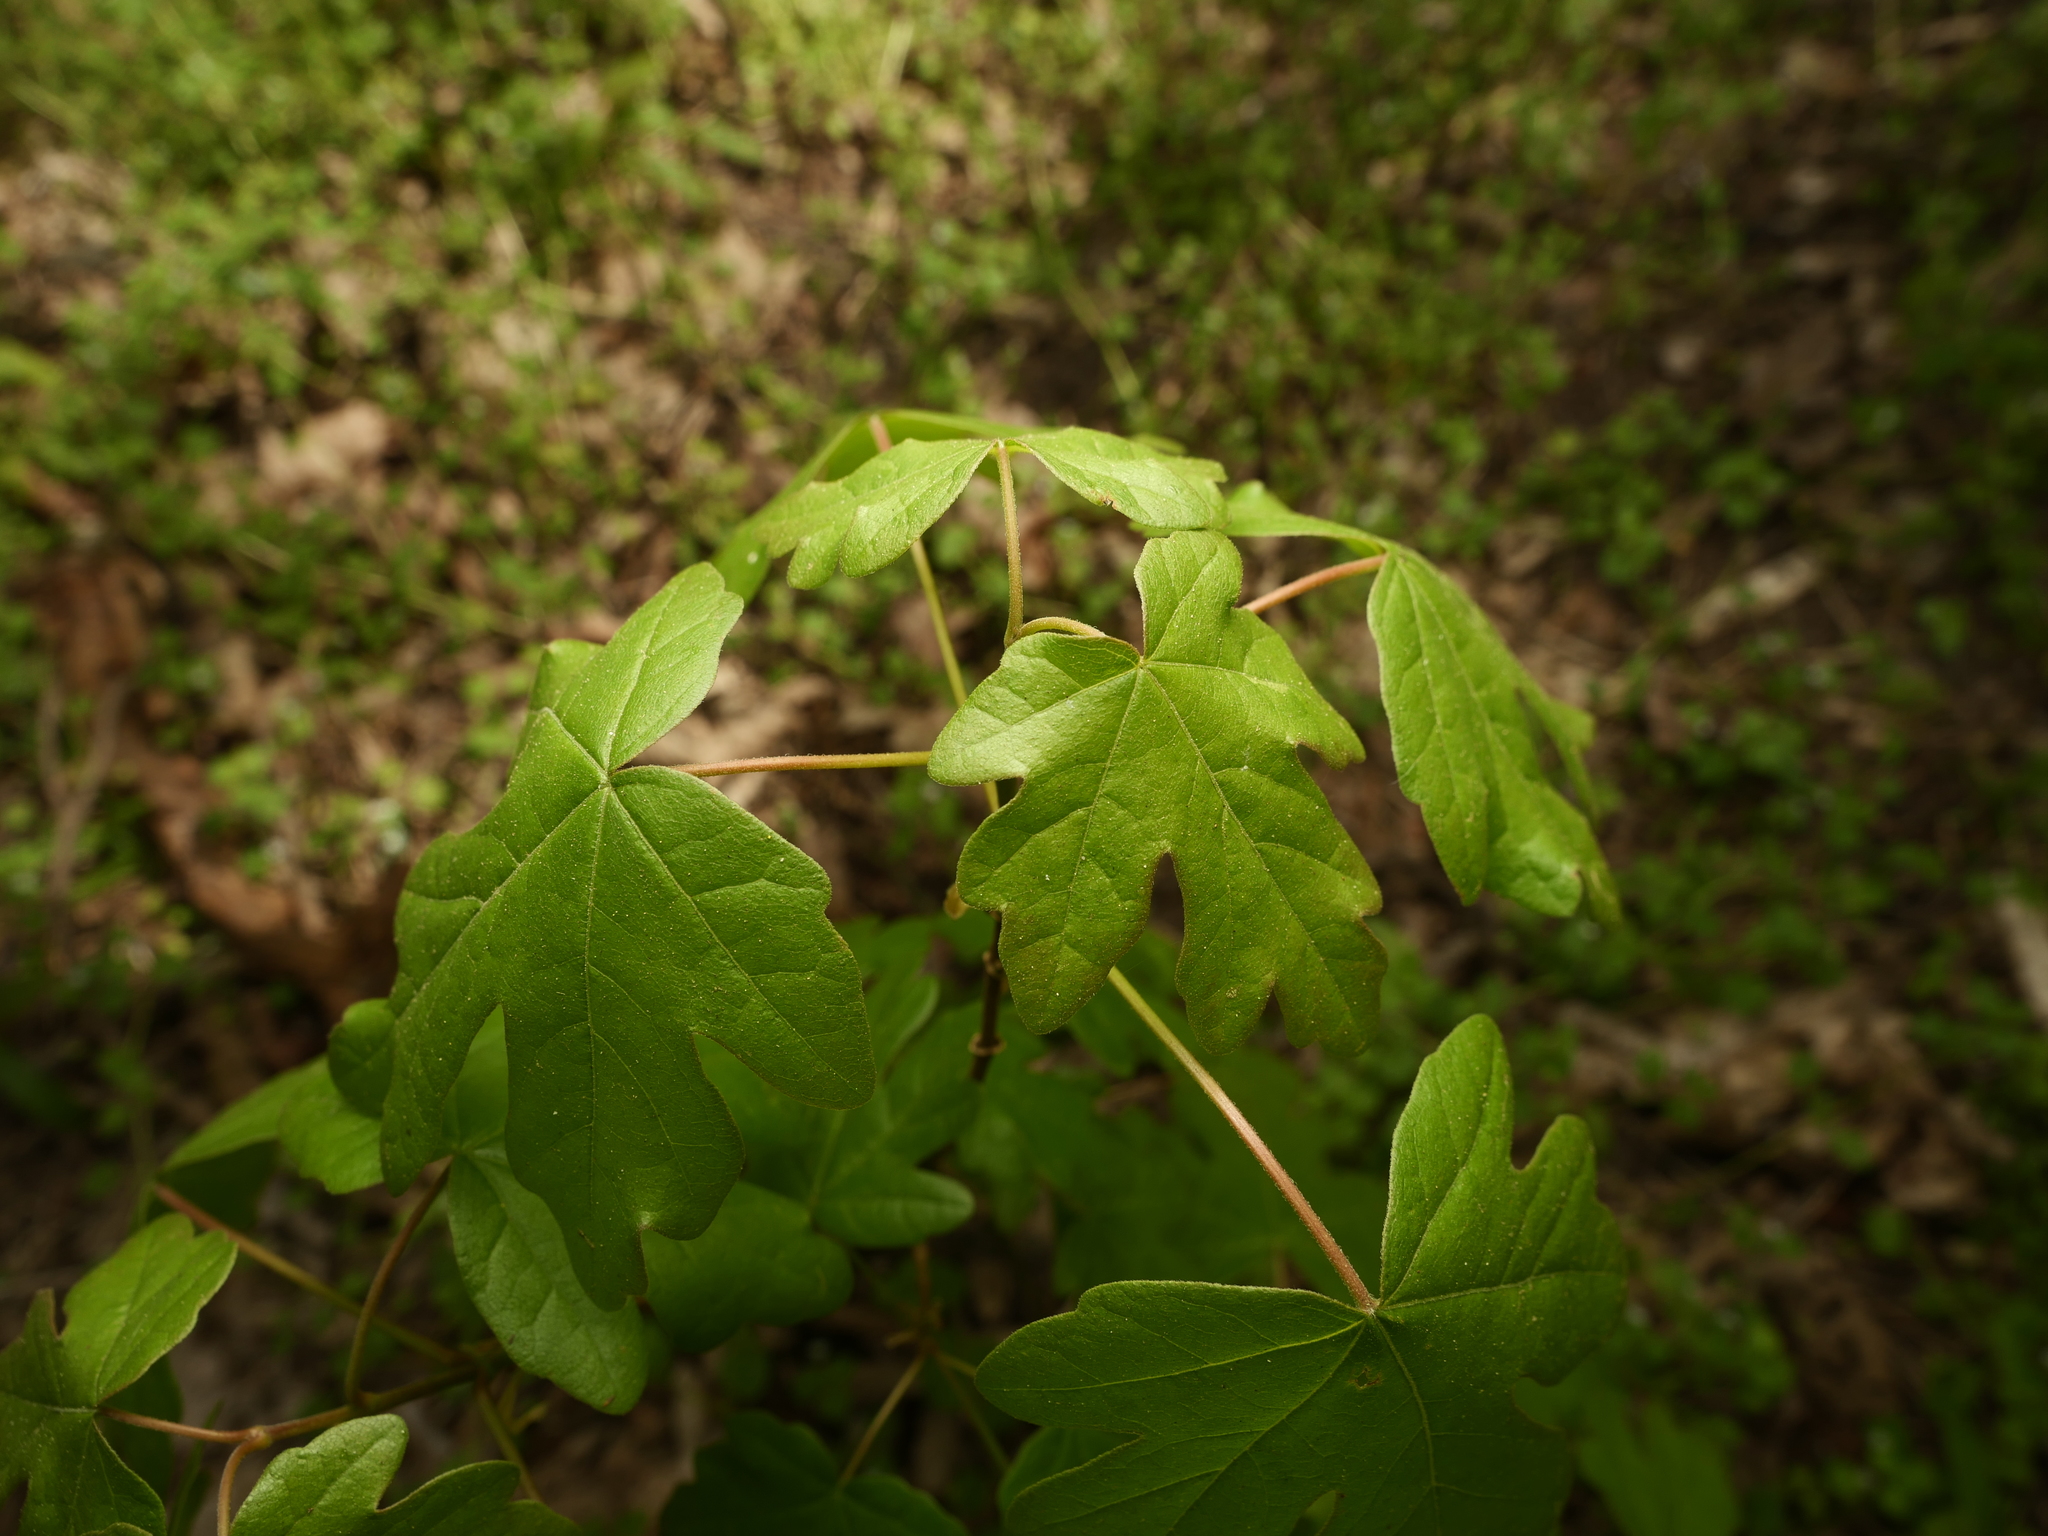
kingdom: Plantae
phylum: Tracheophyta
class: Magnoliopsida
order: Sapindales
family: Sapindaceae
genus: Acer
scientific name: Acer campestre
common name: Field maple
